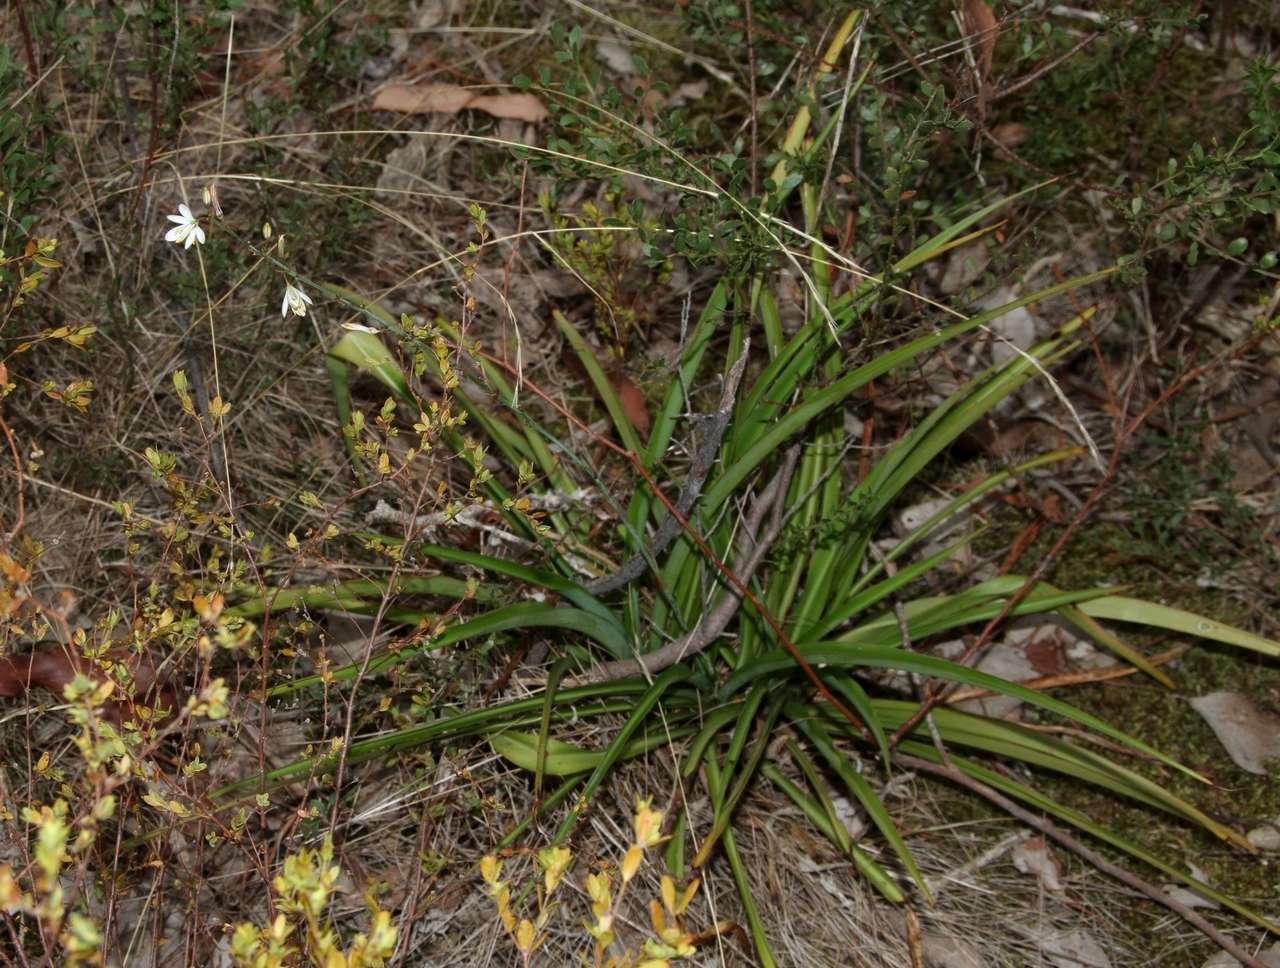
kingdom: Plantae
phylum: Tracheophyta
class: Liliopsida
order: Asparagales
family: Asparagaceae
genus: Chlorophytum
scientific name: Chlorophytum comosum
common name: Spider plant
